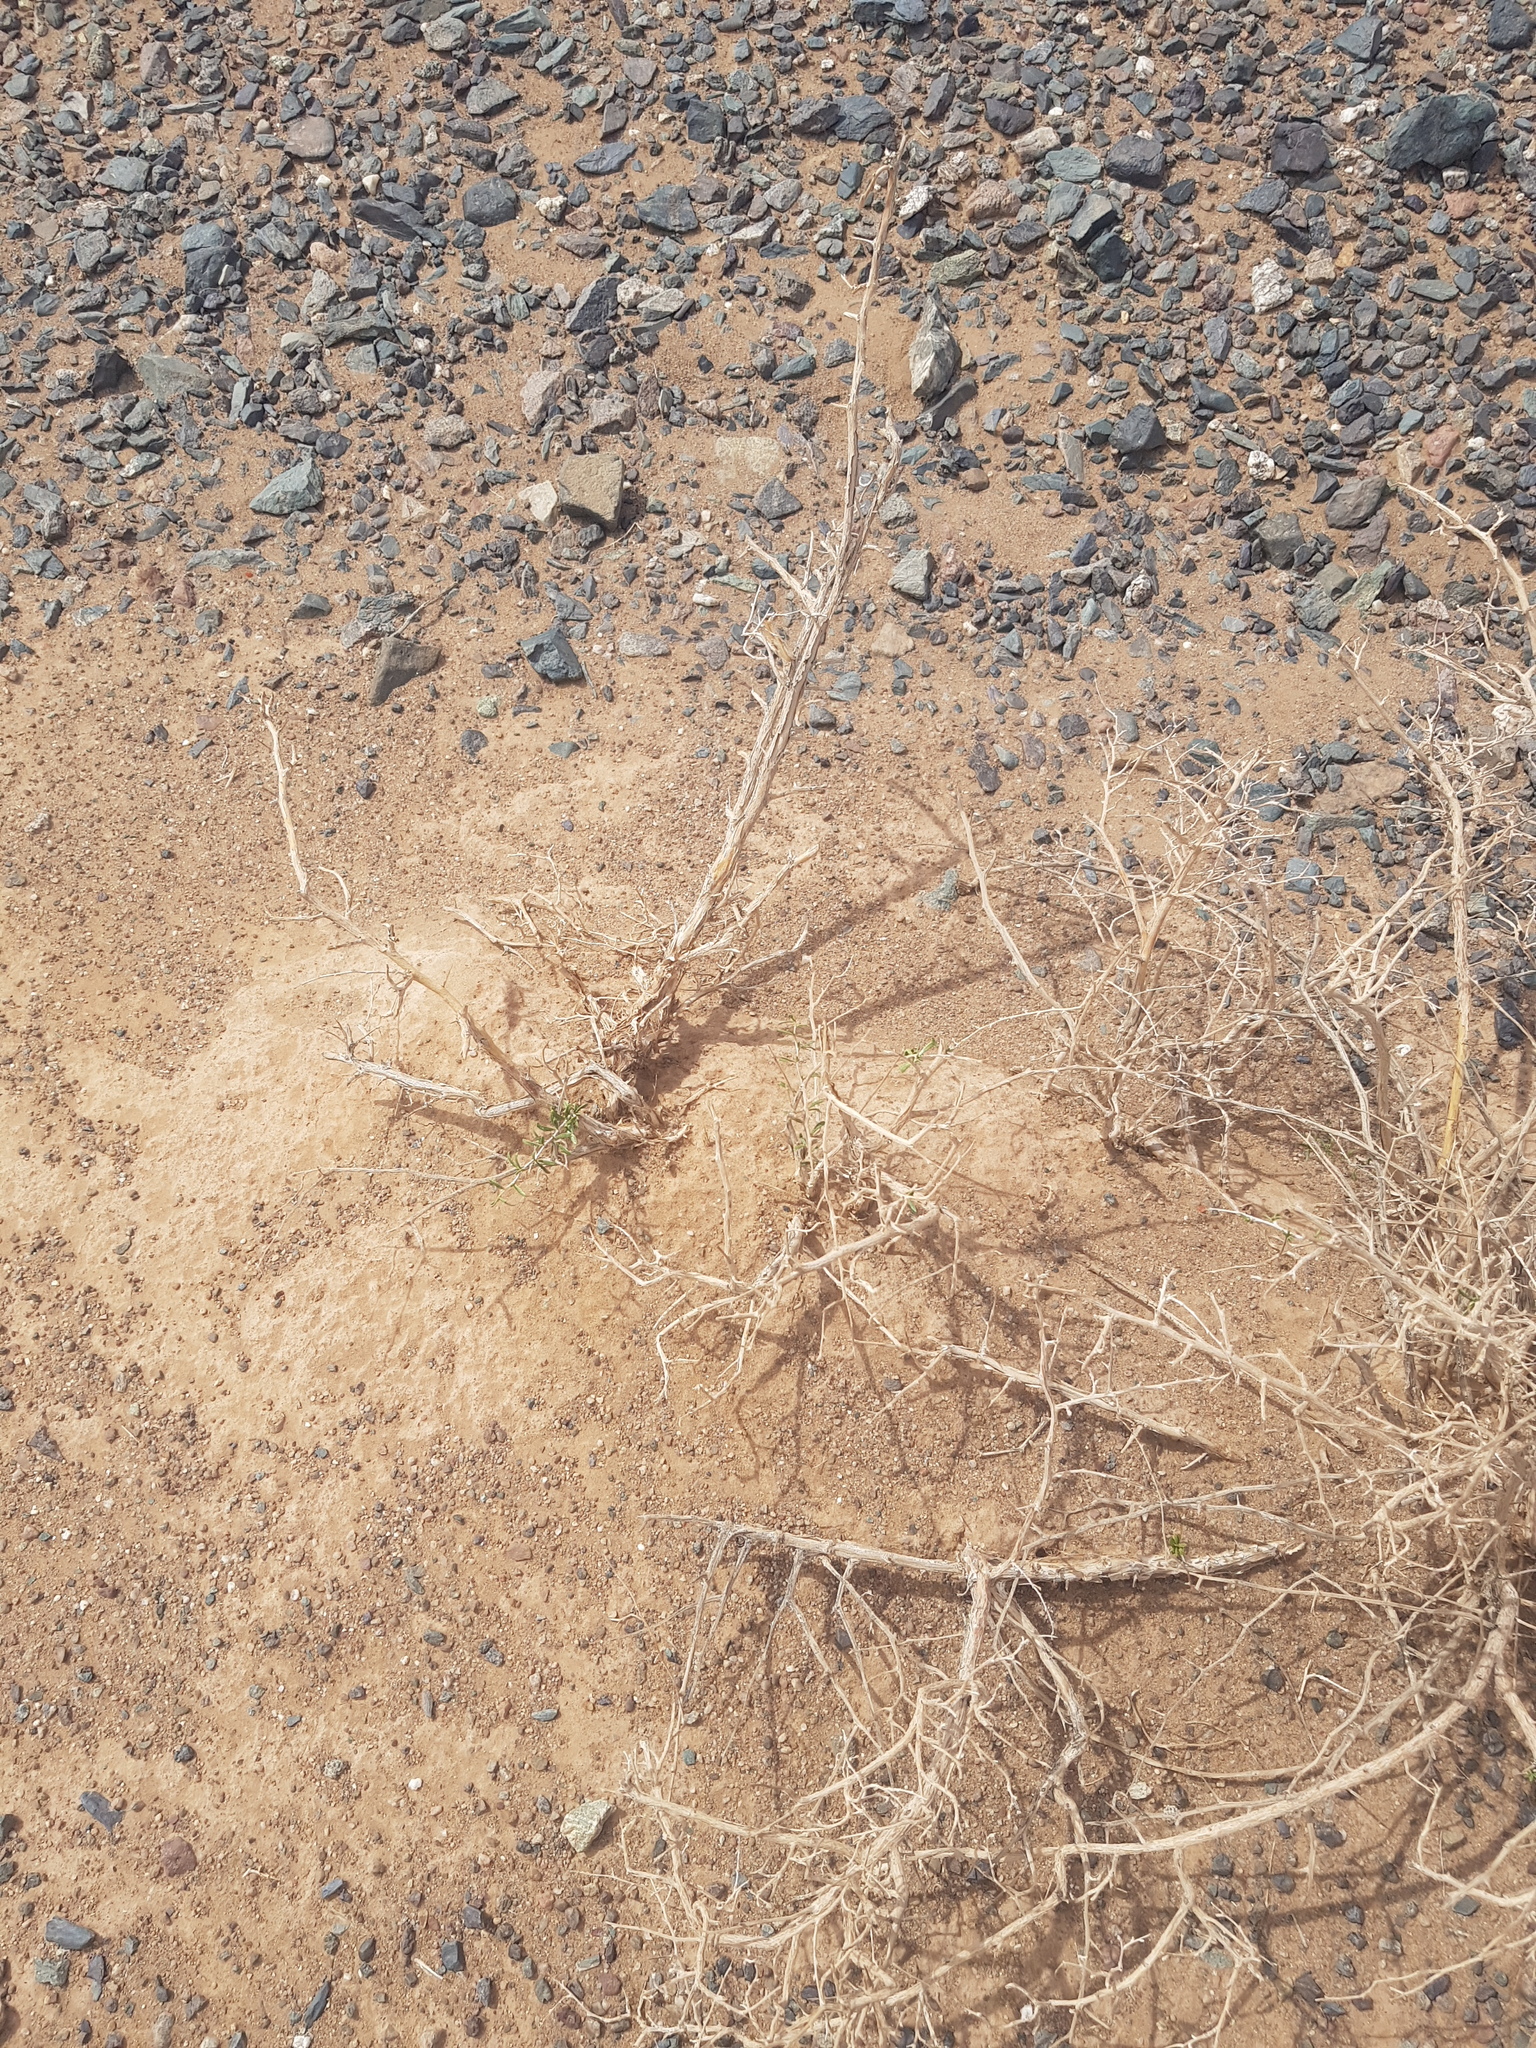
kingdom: Plantae
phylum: Tracheophyta
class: Magnoliopsida
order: Zygophyllales
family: Zygophyllaceae
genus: Zygophyllum
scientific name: Zygophyllum xanthoxylum
